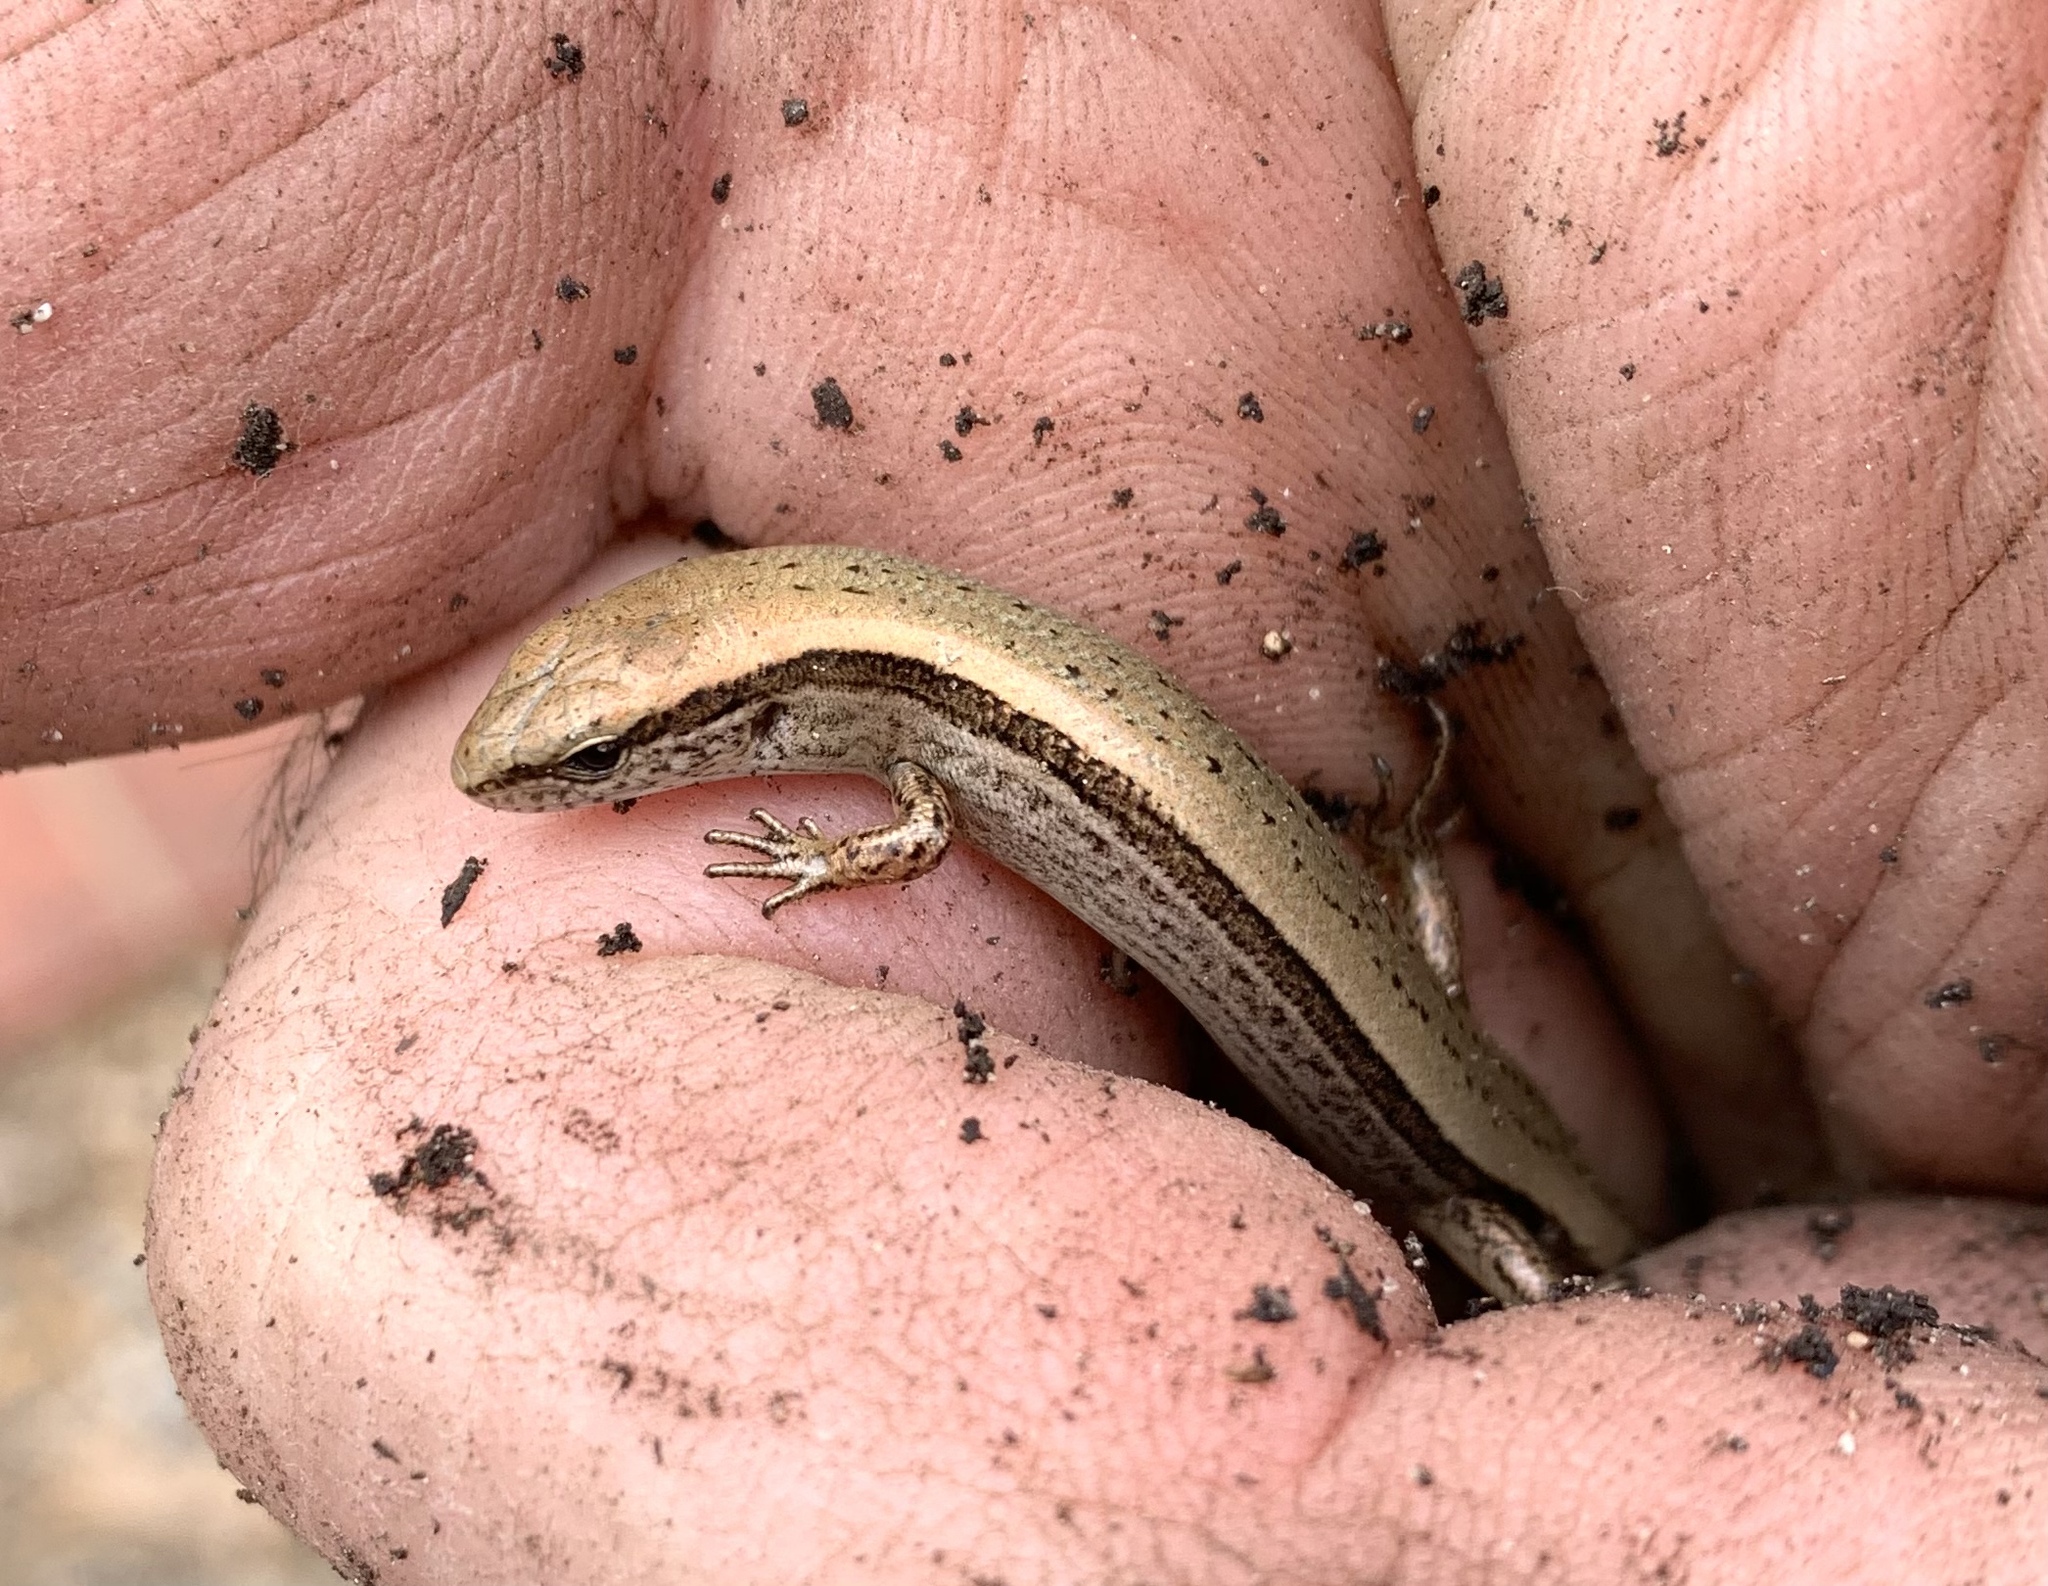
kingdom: Animalia
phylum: Chordata
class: Squamata
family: Scincidae
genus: Scincella
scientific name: Scincella lateralis
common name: Ground skink
